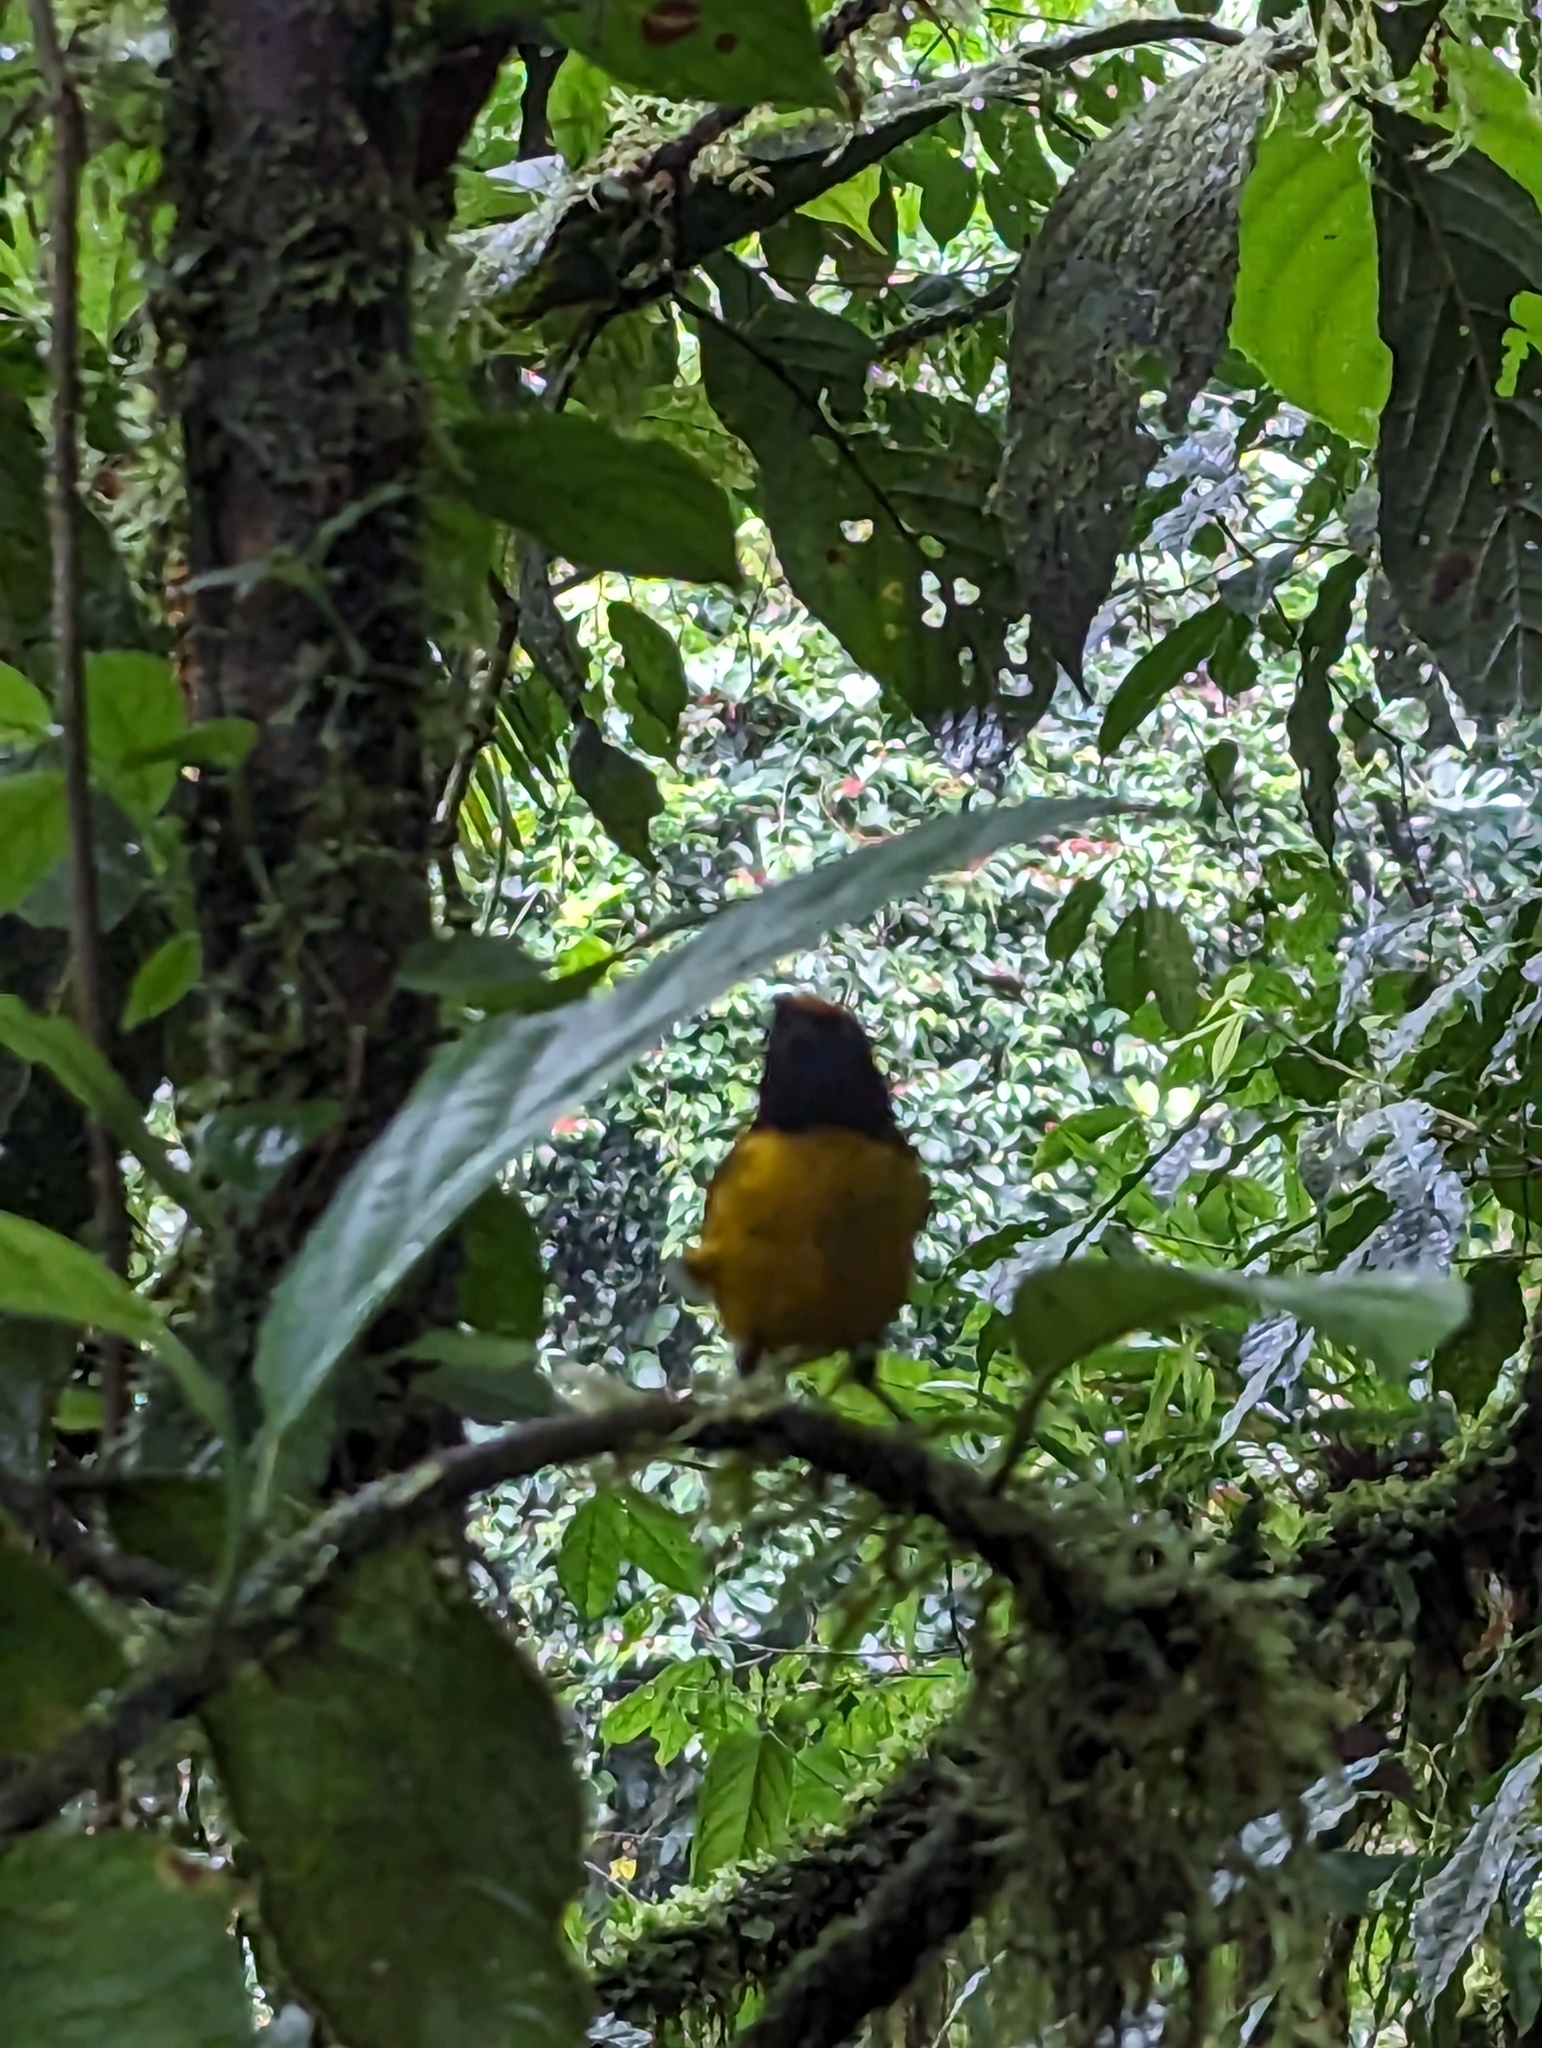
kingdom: Animalia
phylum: Chordata
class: Aves
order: Passeriformes
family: Fringillidae
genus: Euphonia
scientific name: Euphonia anneae
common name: Tawny-capped euphonia
